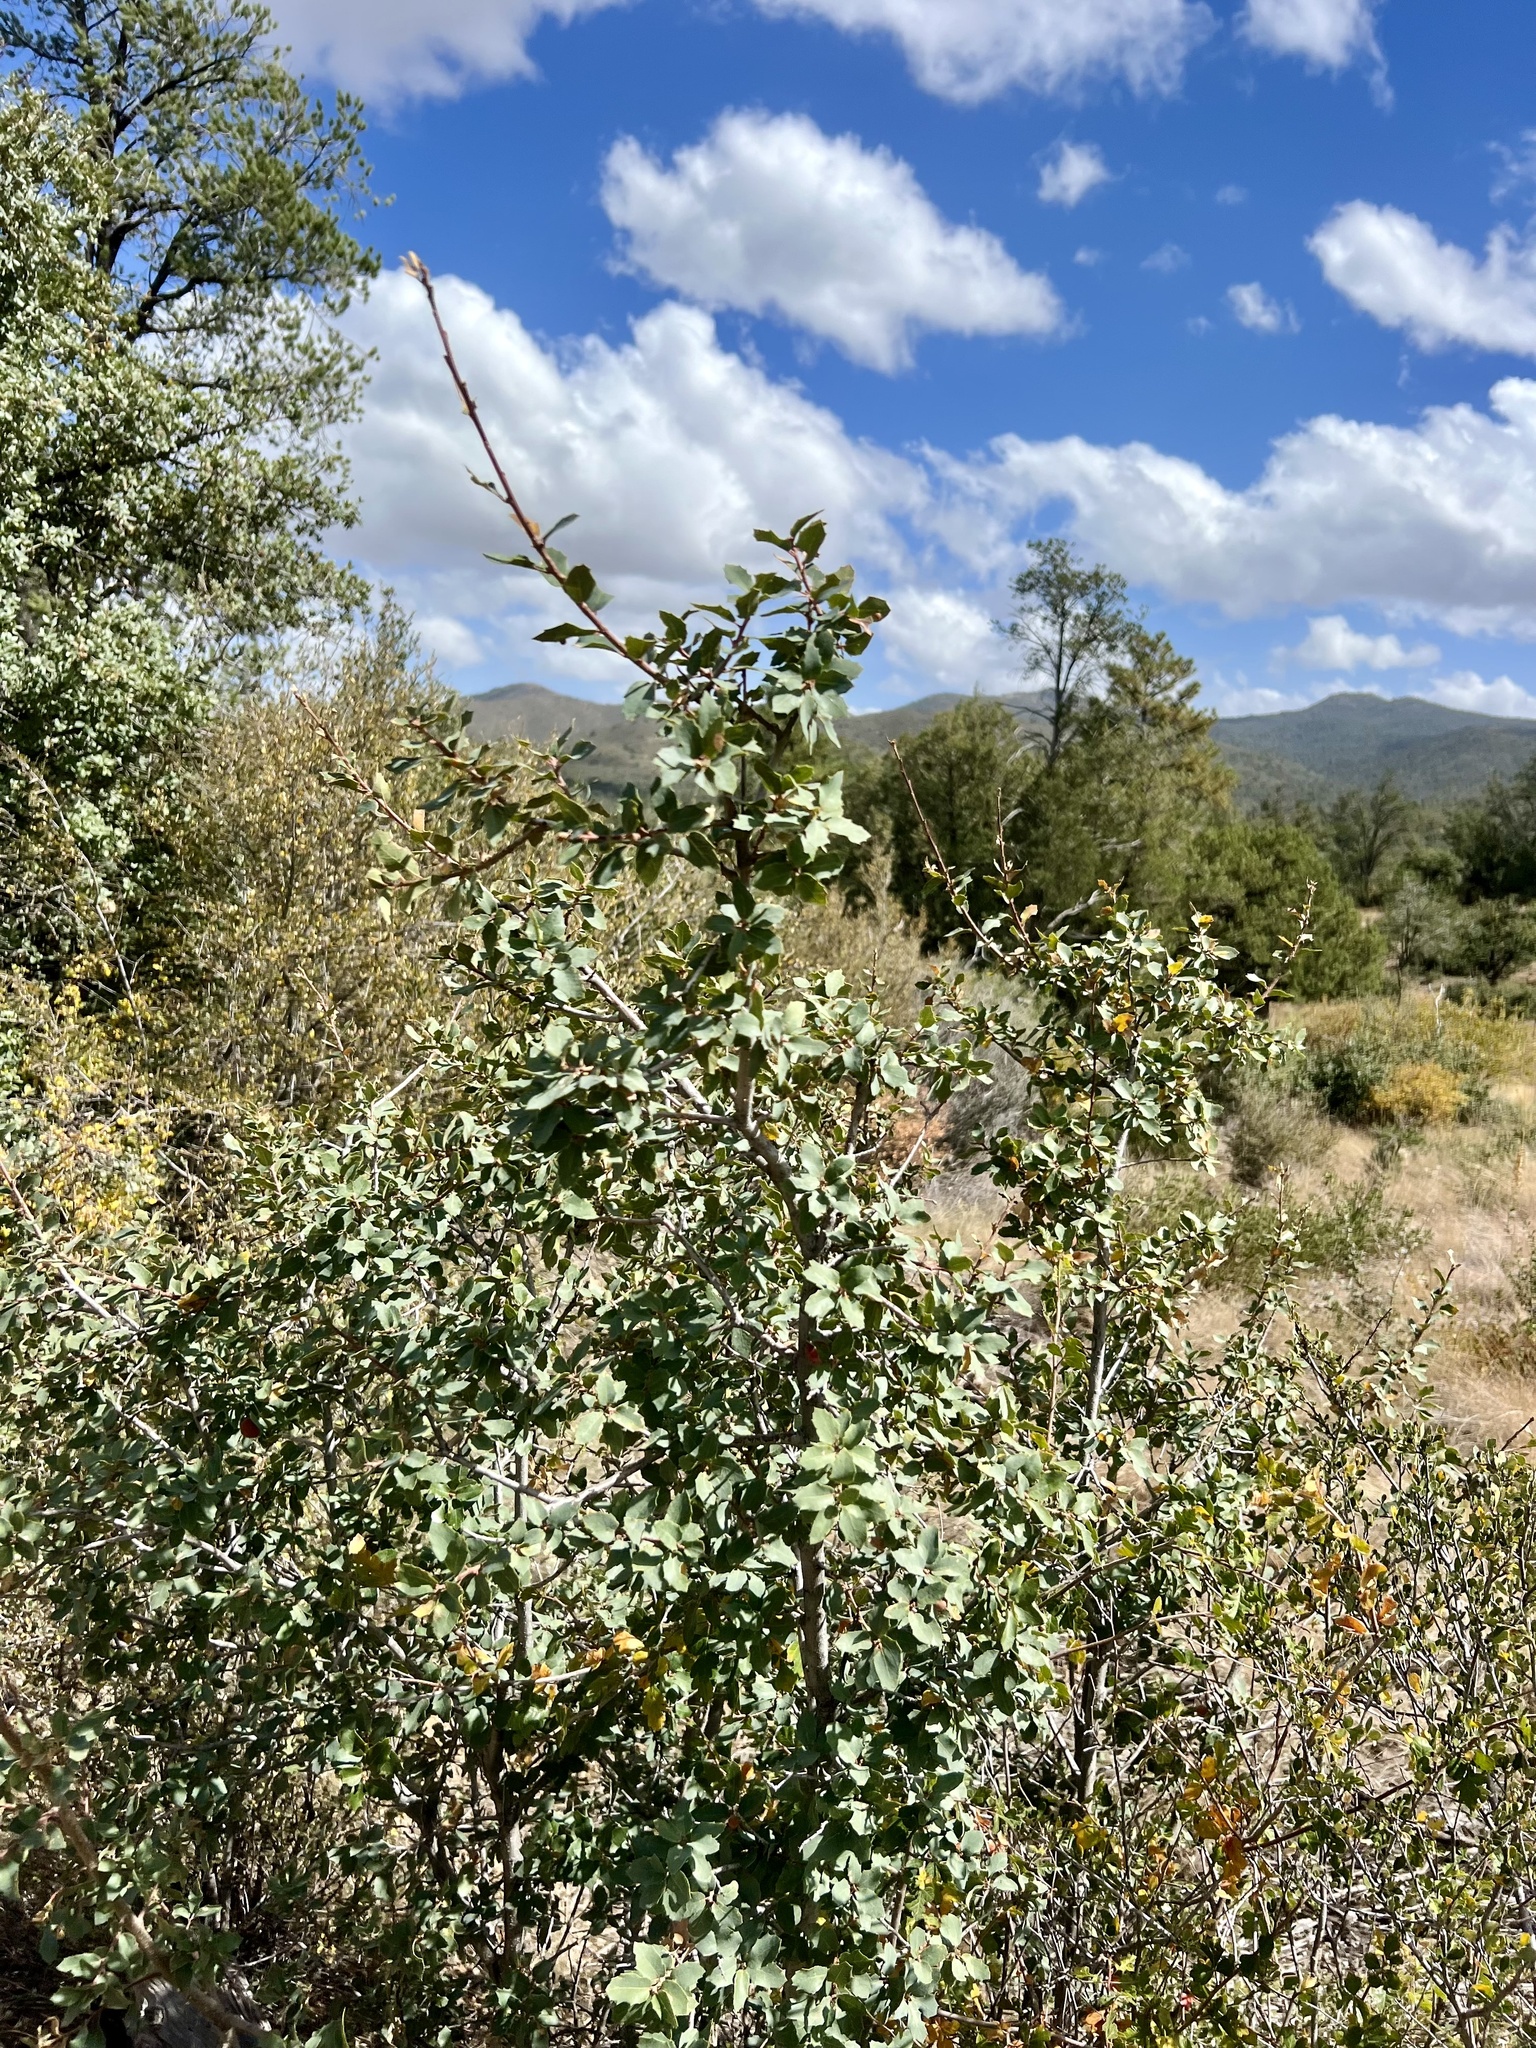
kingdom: Plantae
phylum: Tracheophyta
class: Magnoliopsida
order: Fagales
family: Fagaceae
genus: Quercus
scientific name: Quercus turbinella
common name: Sonoran scrub oak
